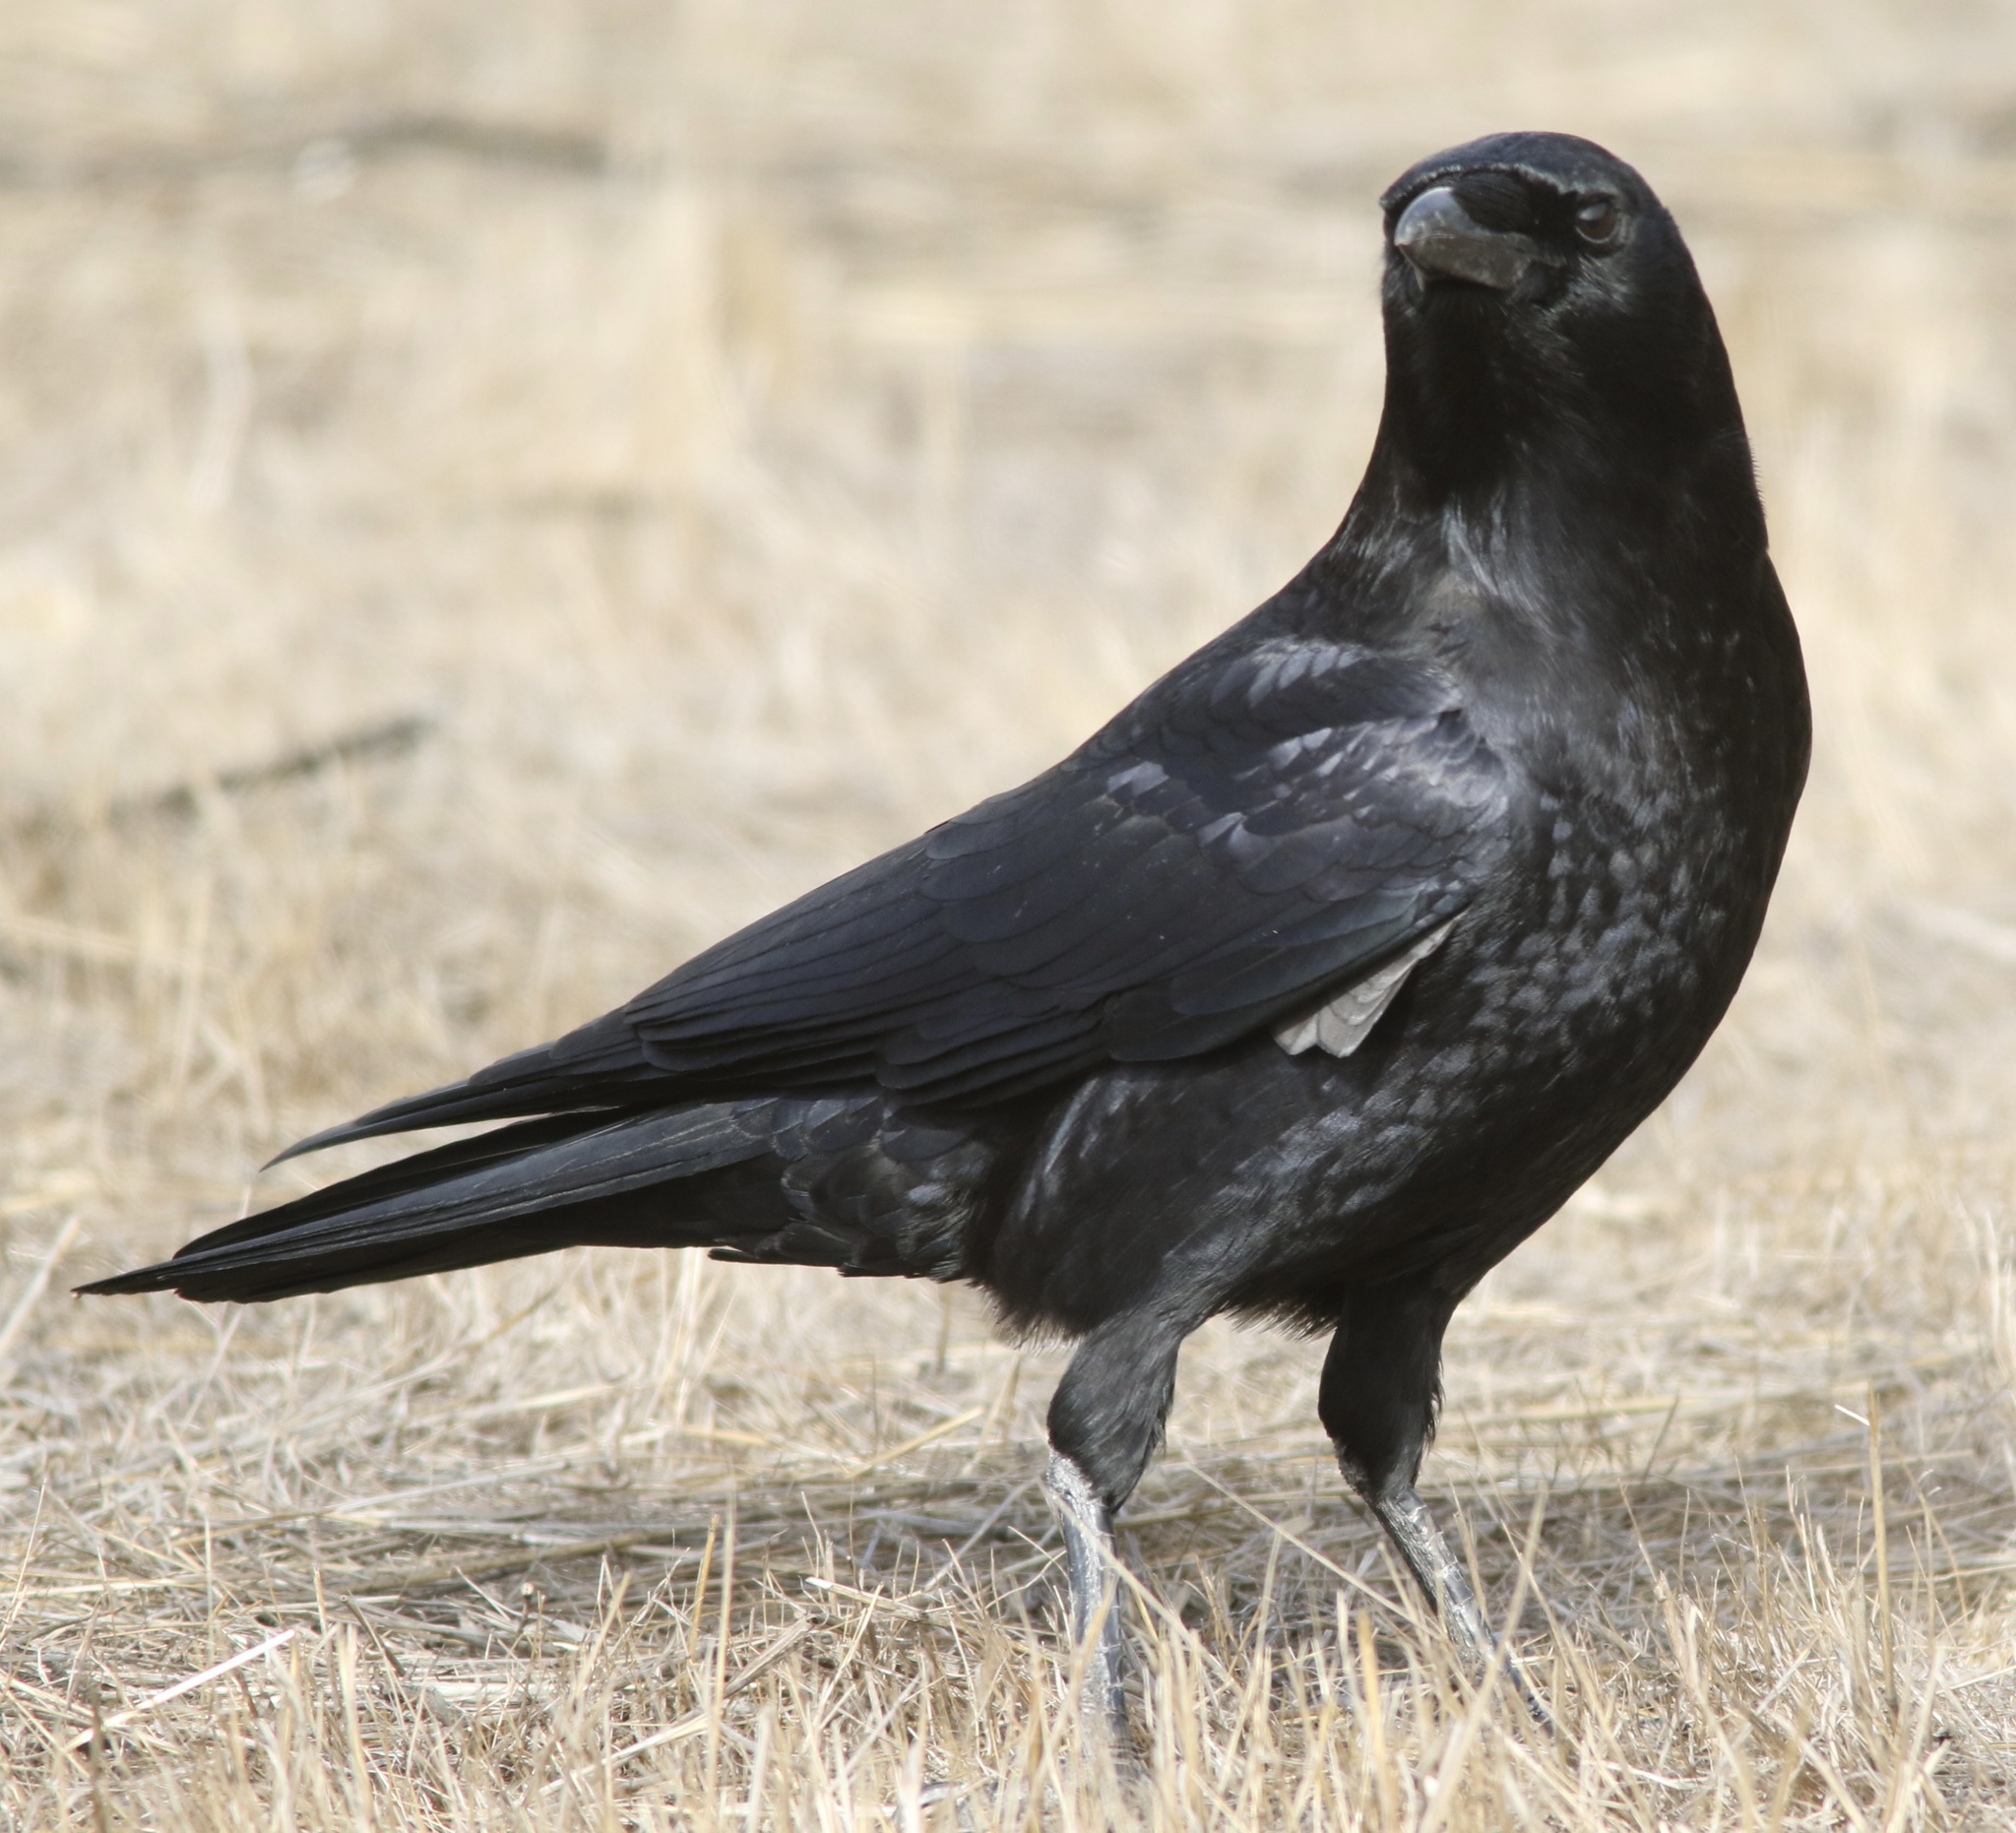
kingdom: Animalia
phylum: Chordata
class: Aves
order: Passeriformes
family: Corvidae
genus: Corvus
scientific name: Corvus brachyrhynchos
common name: American crow
